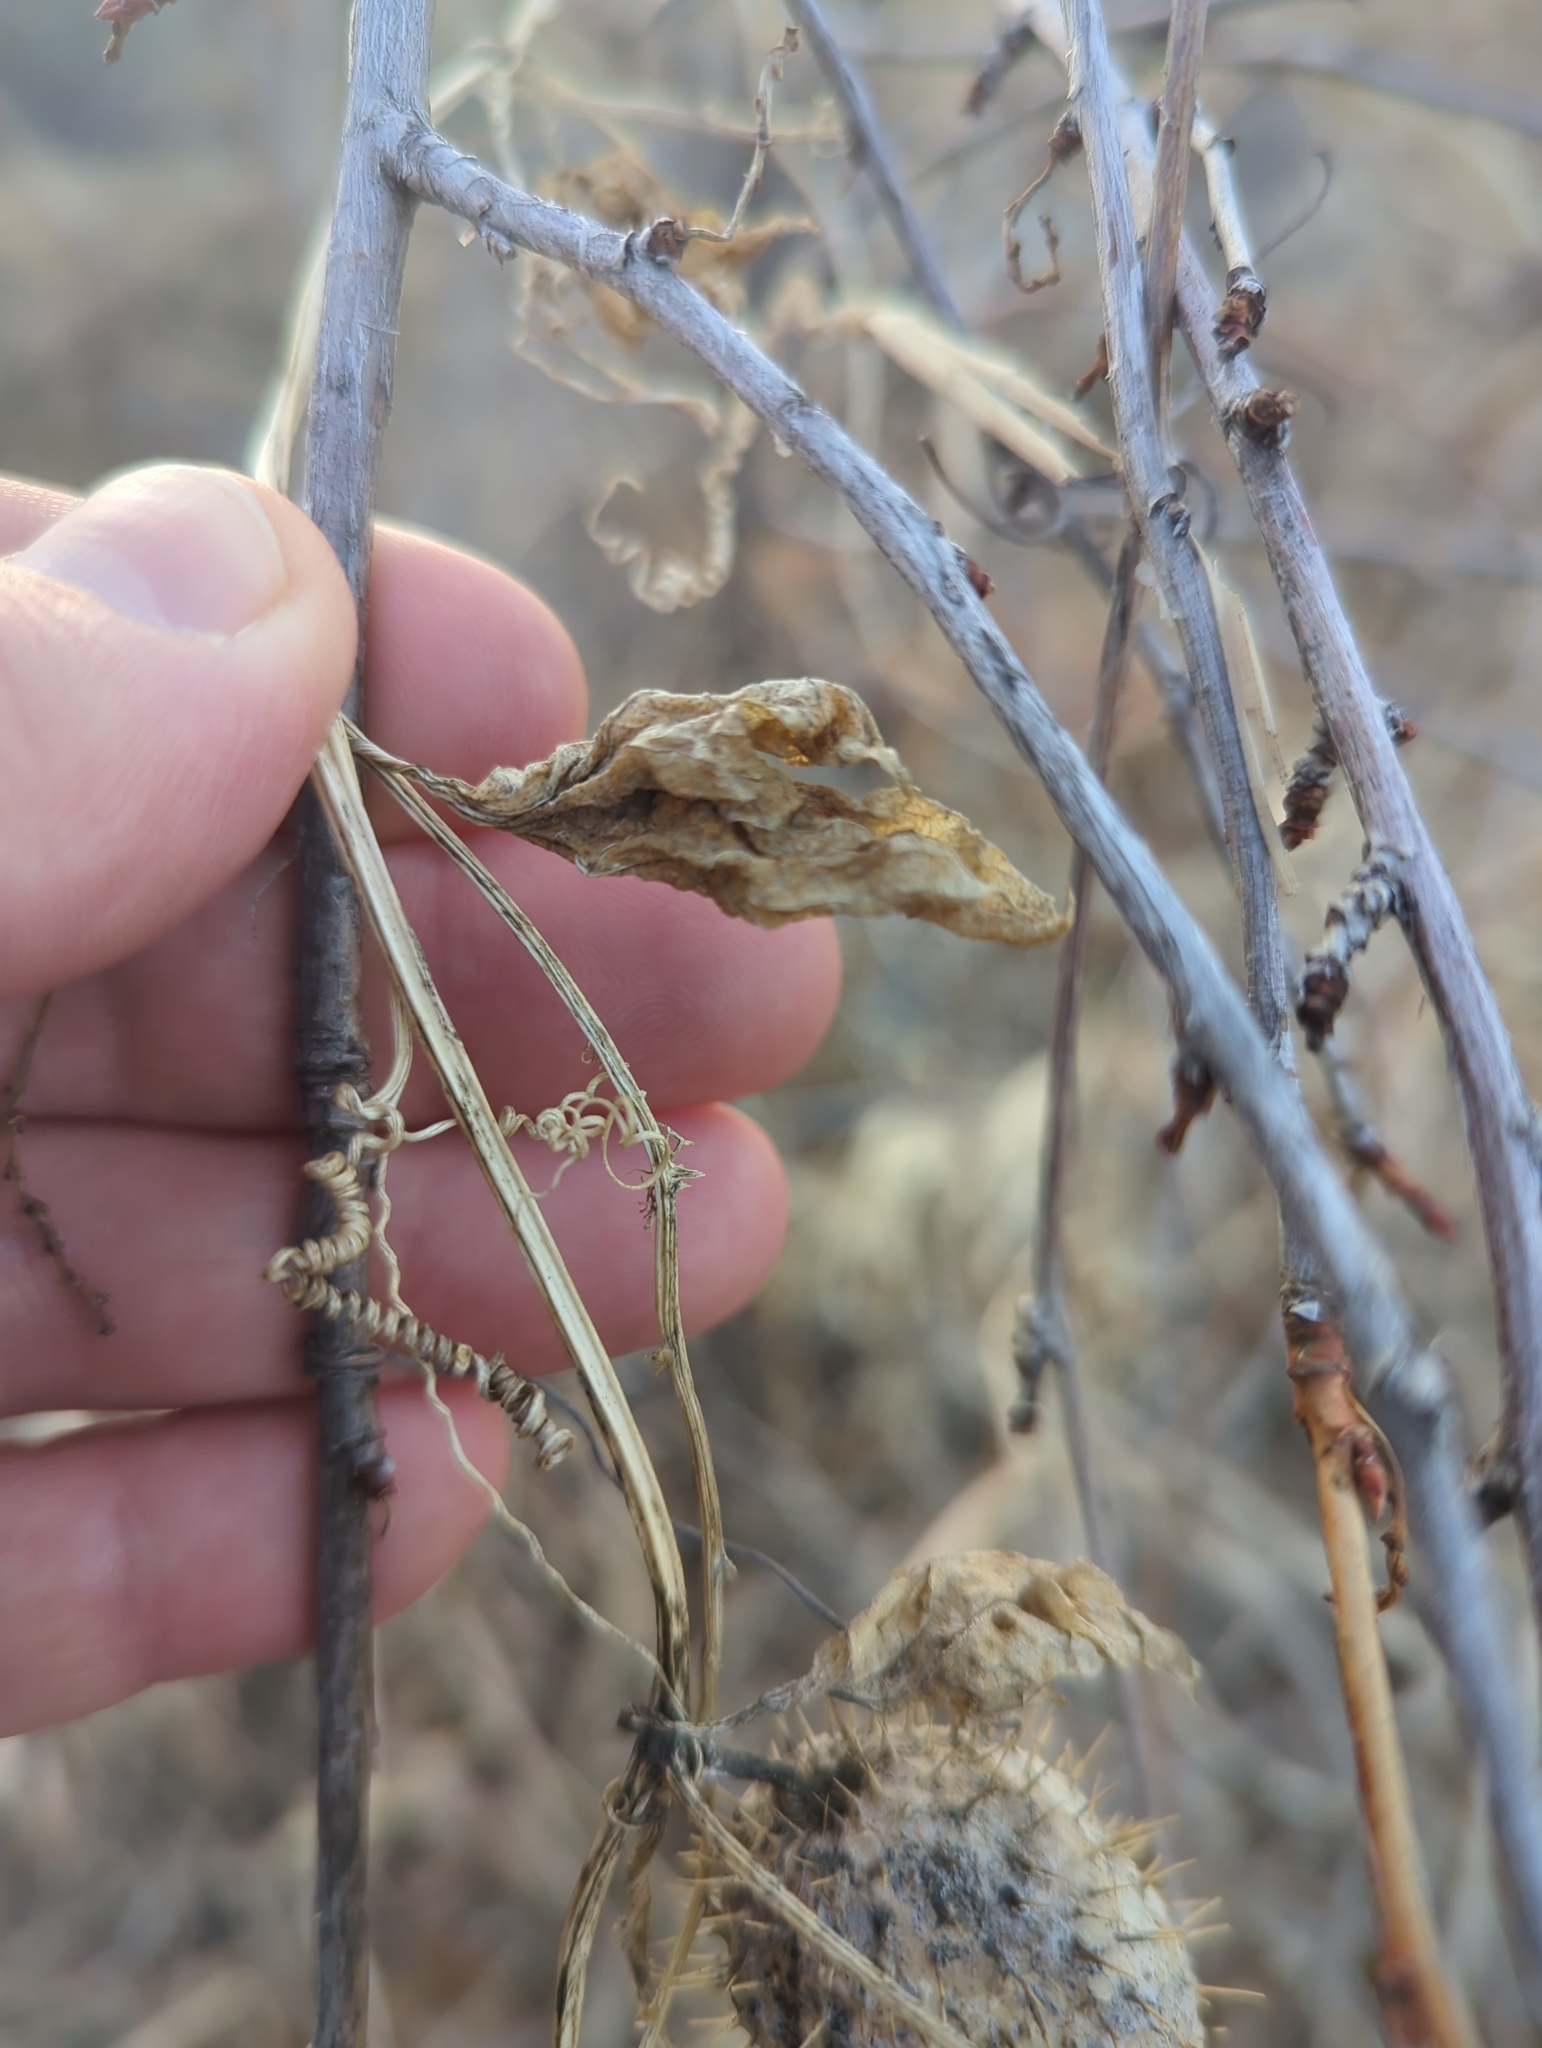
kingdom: Plantae
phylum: Tracheophyta
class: Magnoliopsida
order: Cucurbitales
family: Cucurbitaceae
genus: Echinocystis
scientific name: Echinocystis lobata
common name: Wild cucumber
